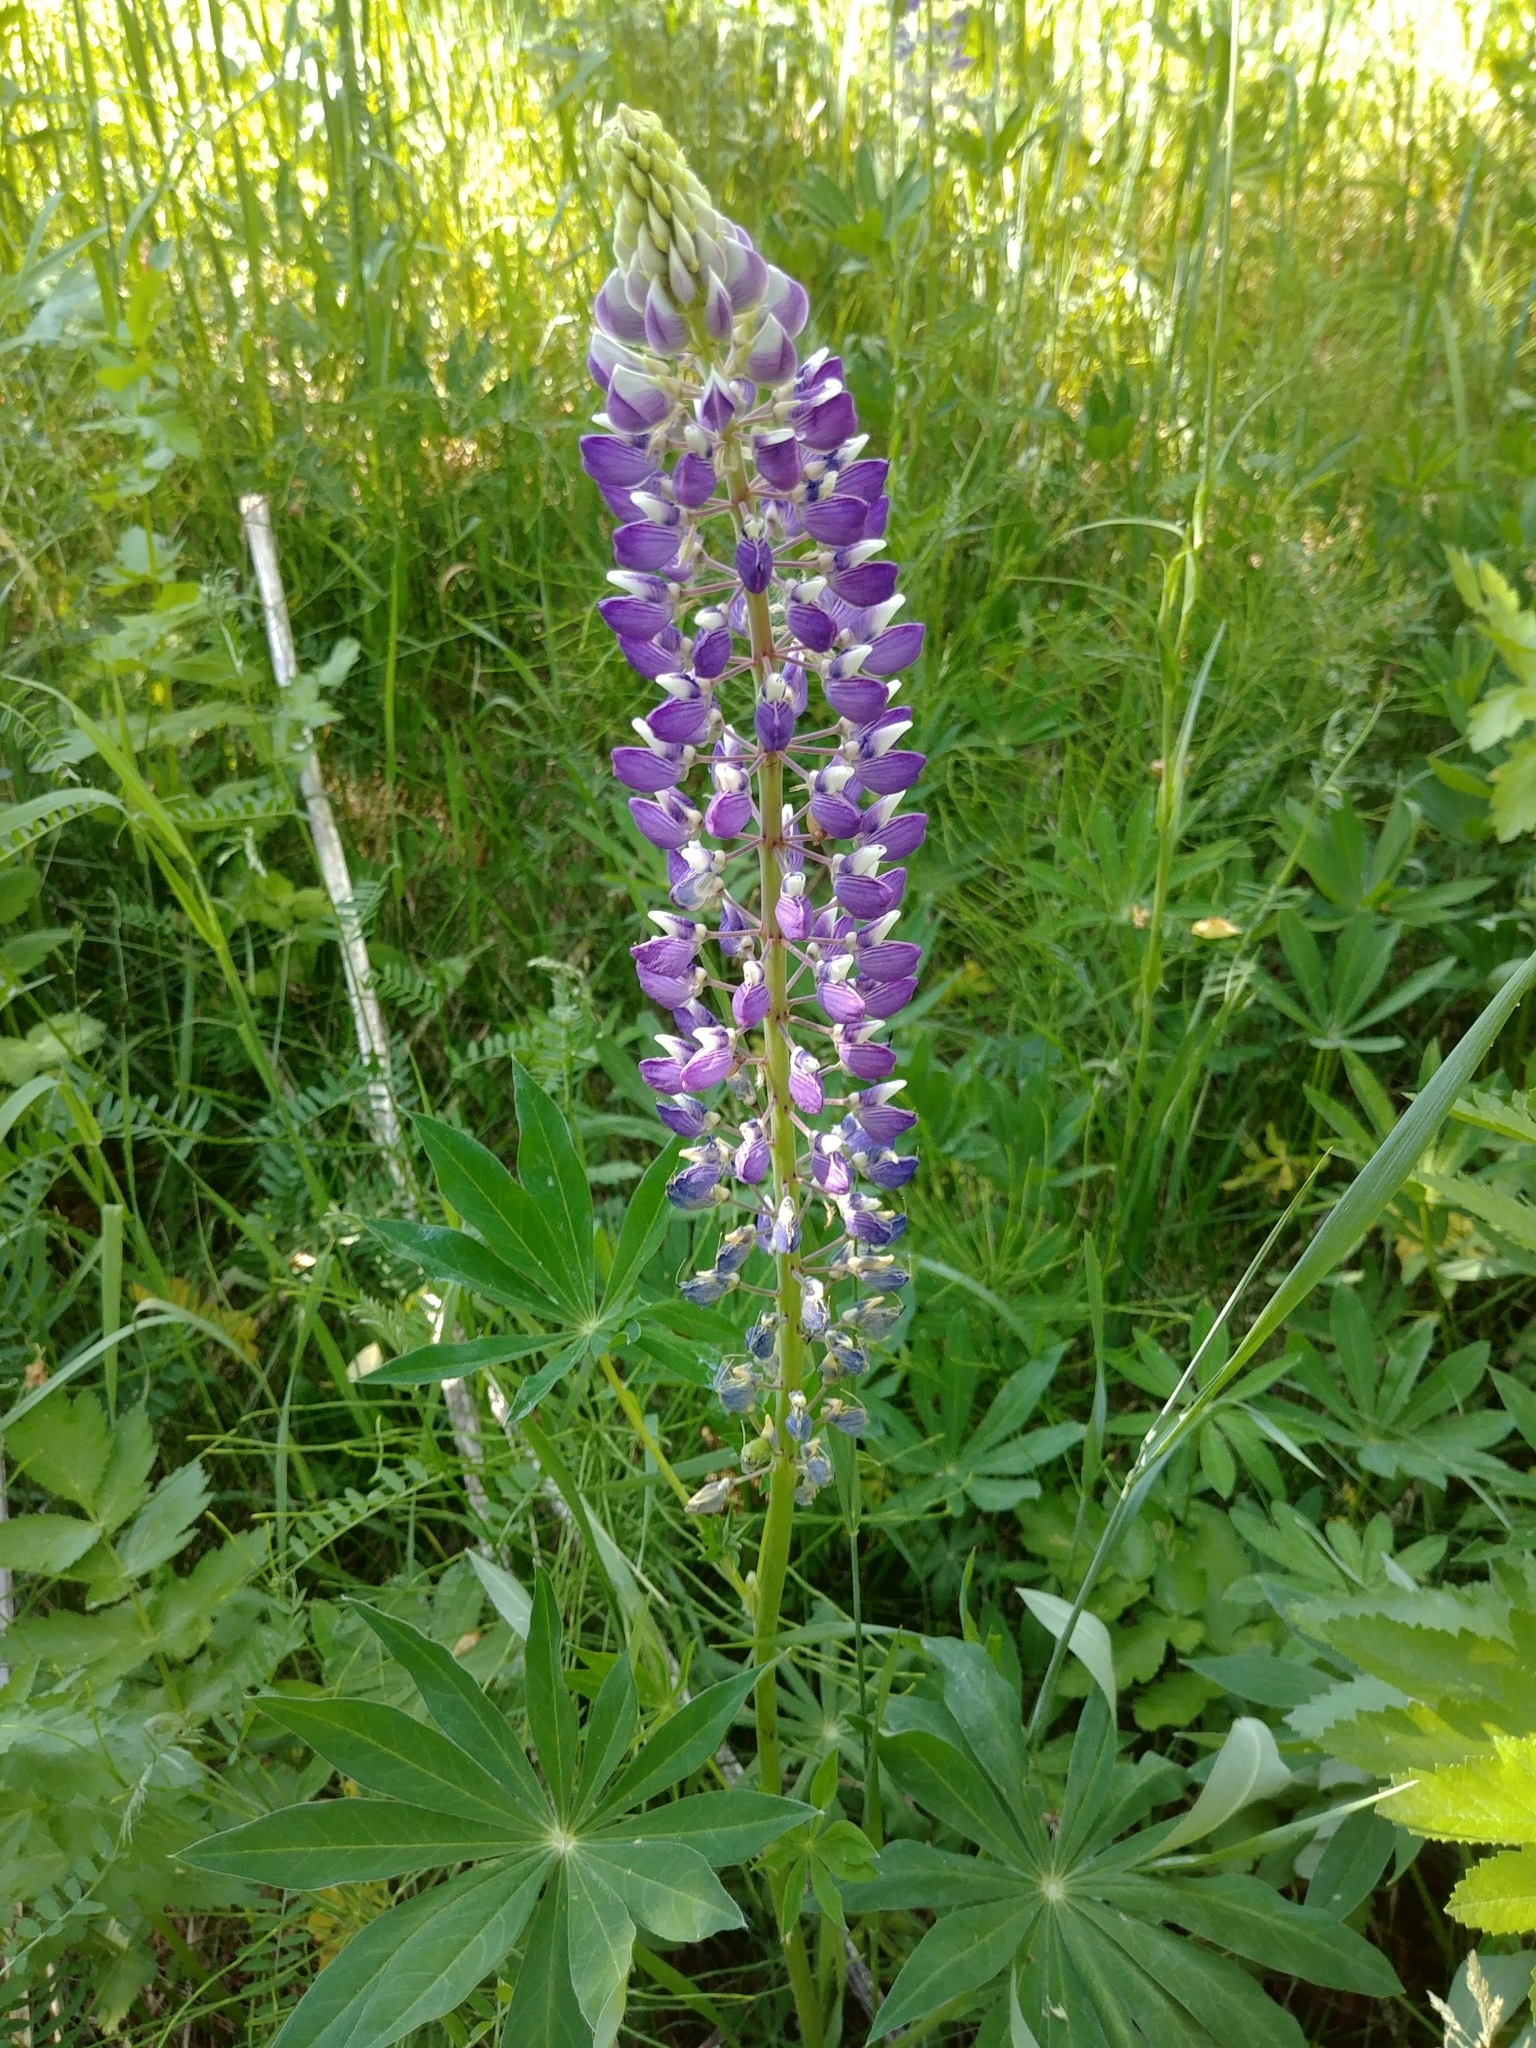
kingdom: Plantae
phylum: Tracheophyta
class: Magnoliopsida
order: Fabales
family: Fabaceae
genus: Lupinus
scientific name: Lupinus polyphyllus
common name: Garden lupin
